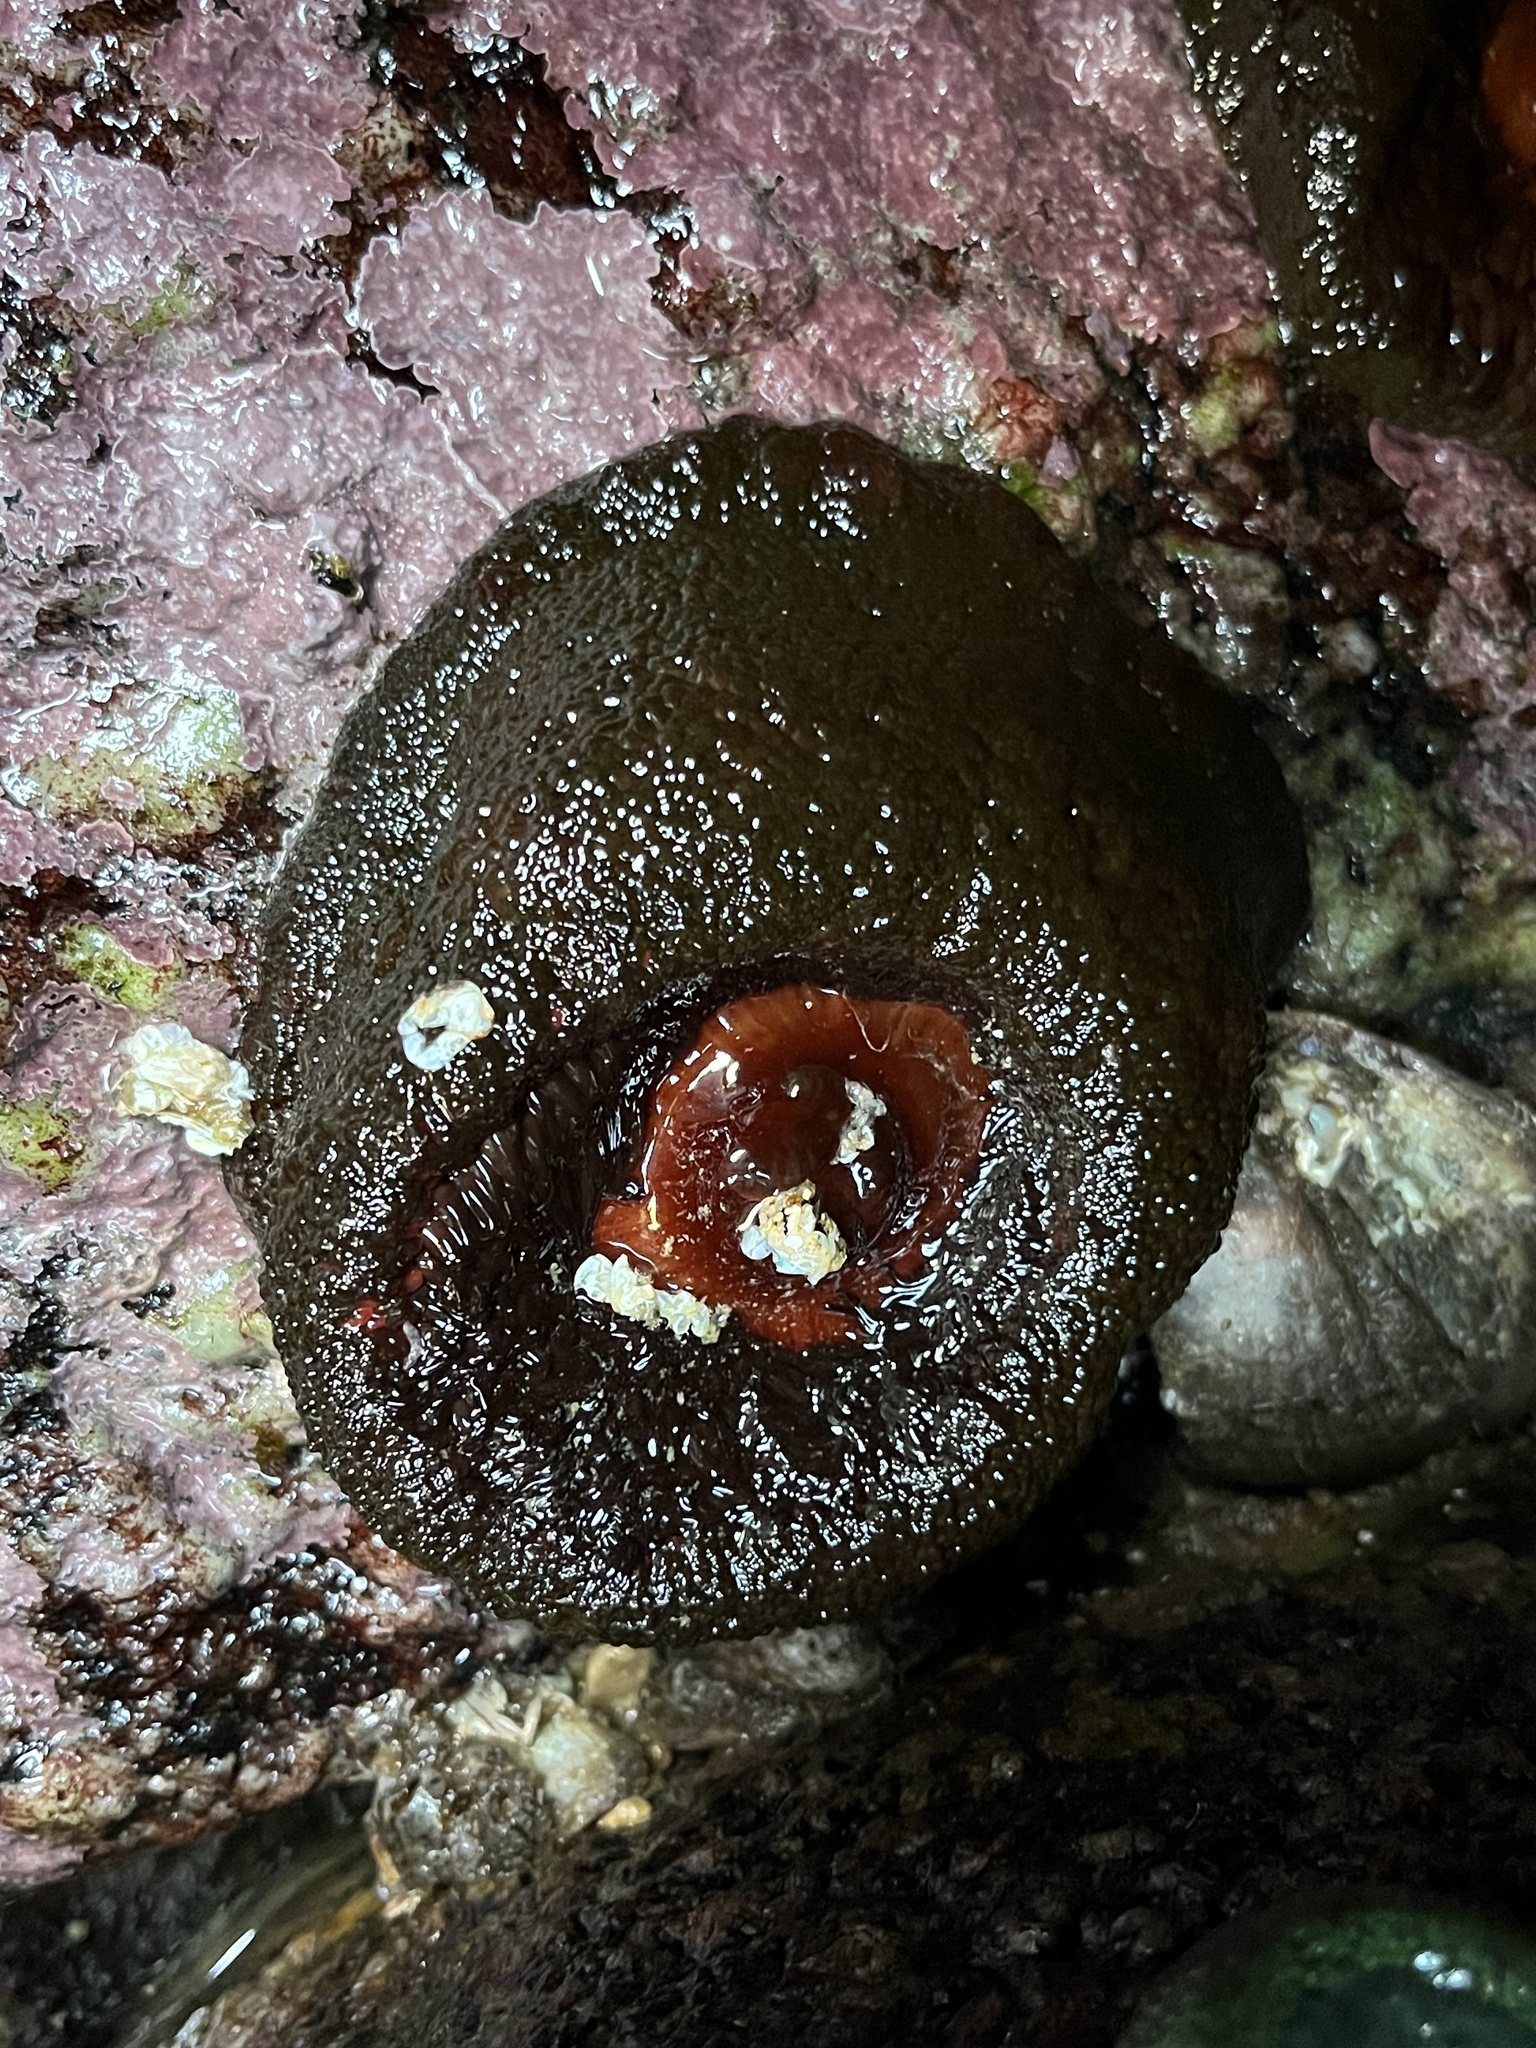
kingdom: Animalia
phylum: Cnidaria
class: Anthozoa
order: Actiniaria
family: Actiniidae
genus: Phymactis
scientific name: Phymactis papillosa
